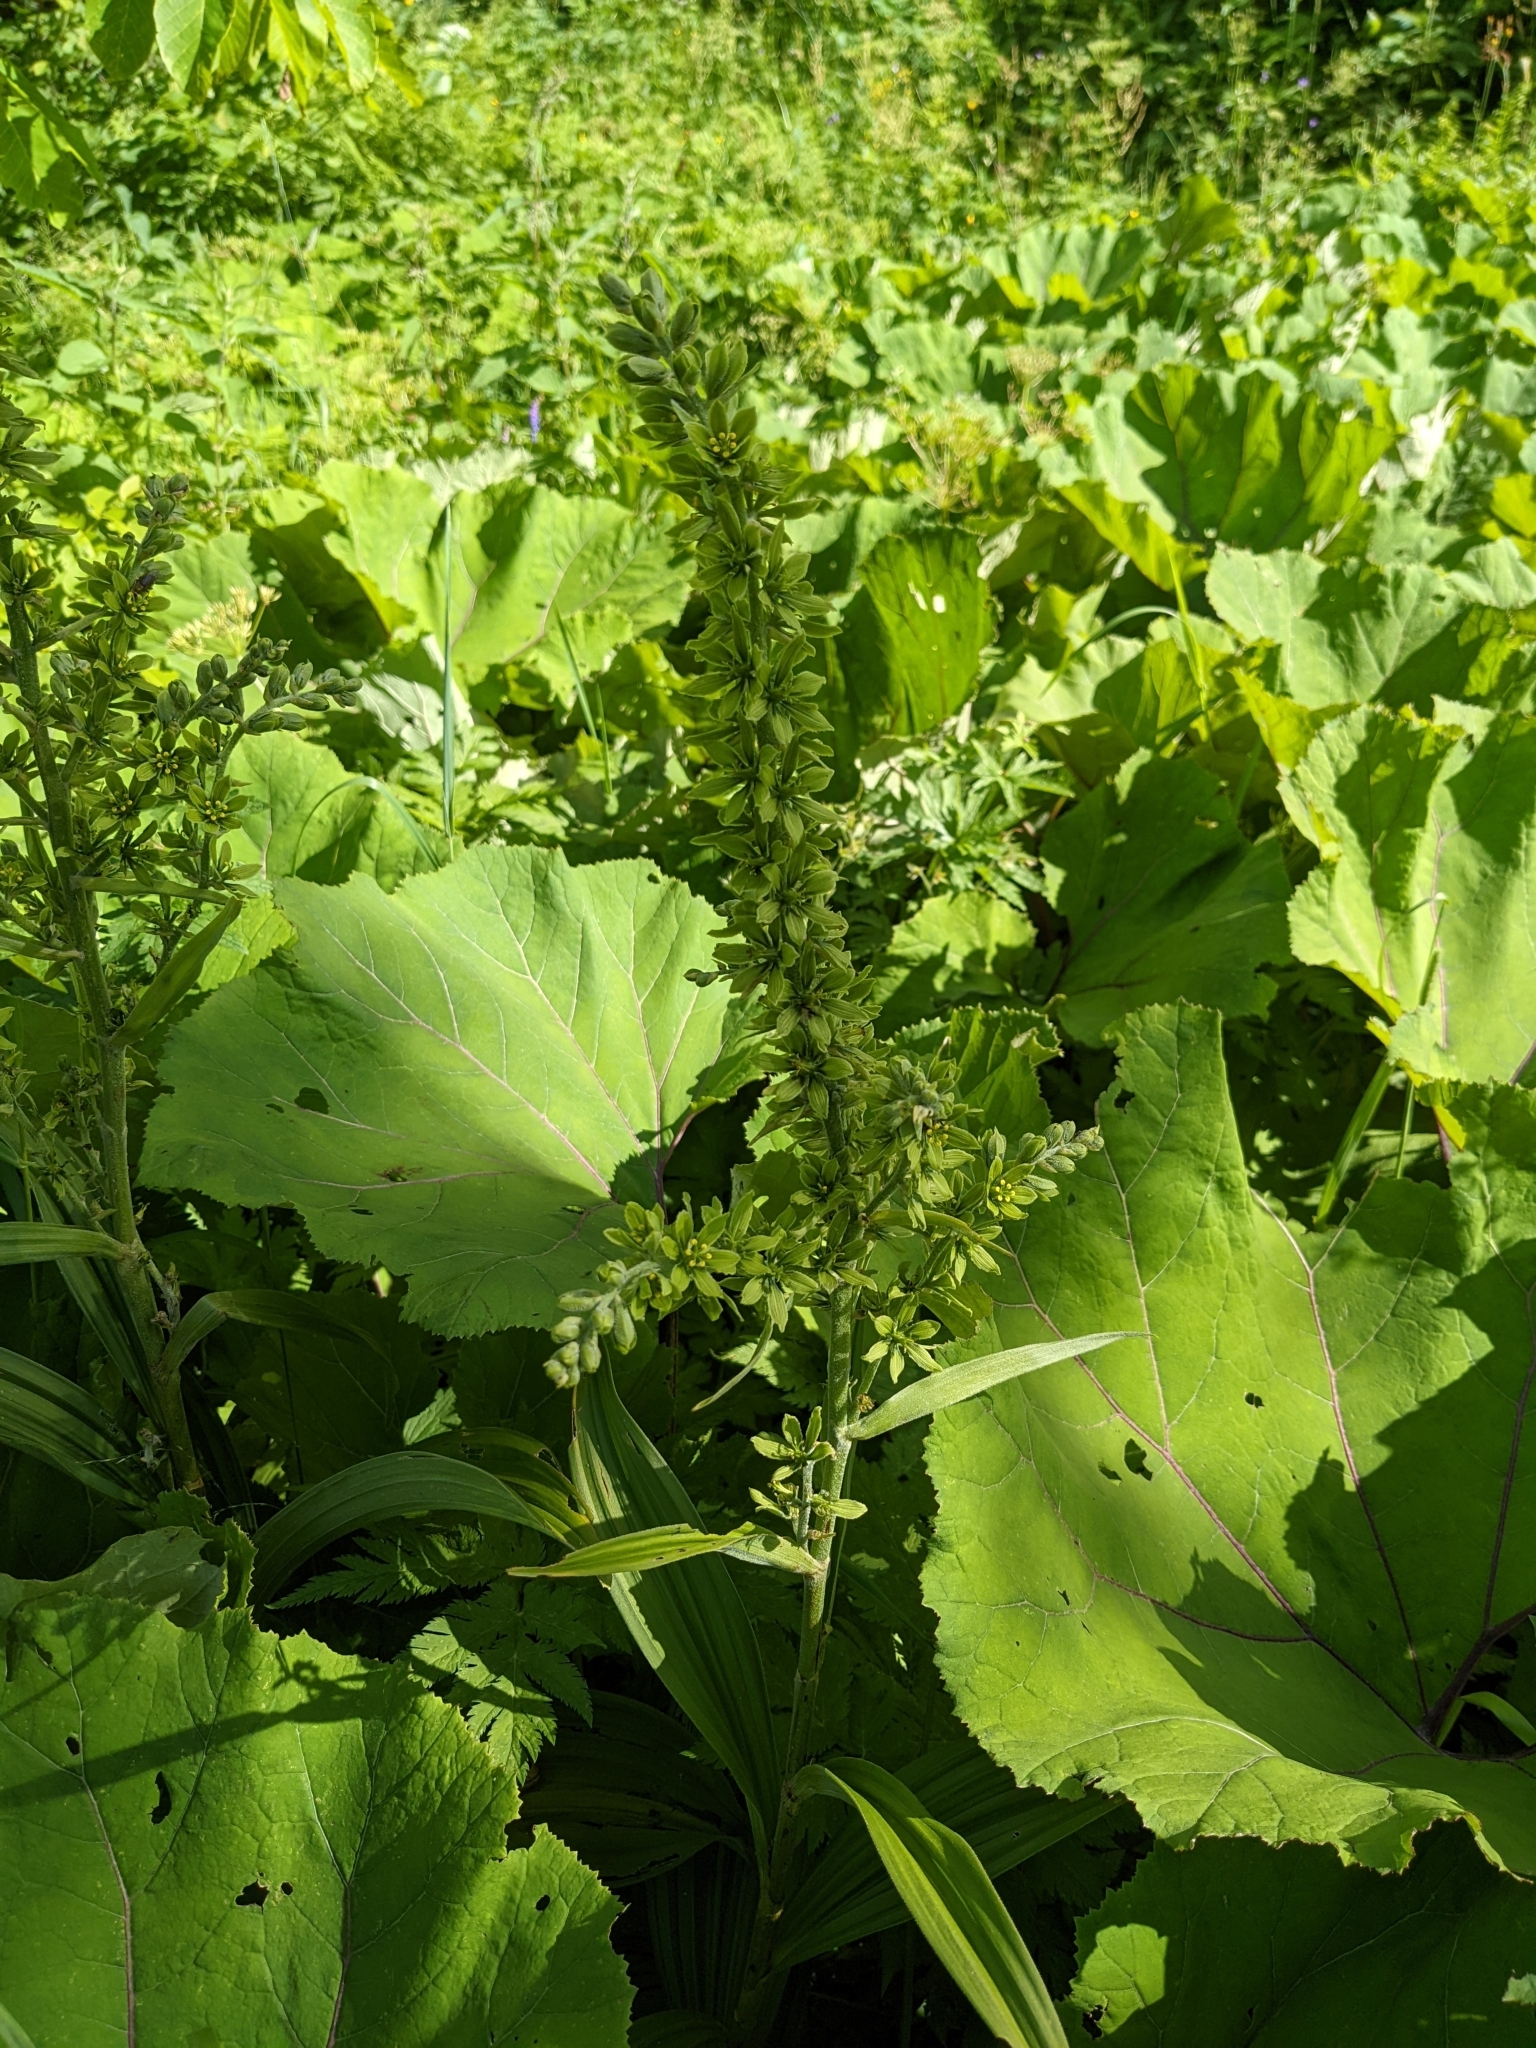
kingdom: Plantae
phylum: Tracheophyta
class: Liliopsida
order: Liliales
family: Melanthiaceae
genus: Veratrum
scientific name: Veratrum lobelianum
